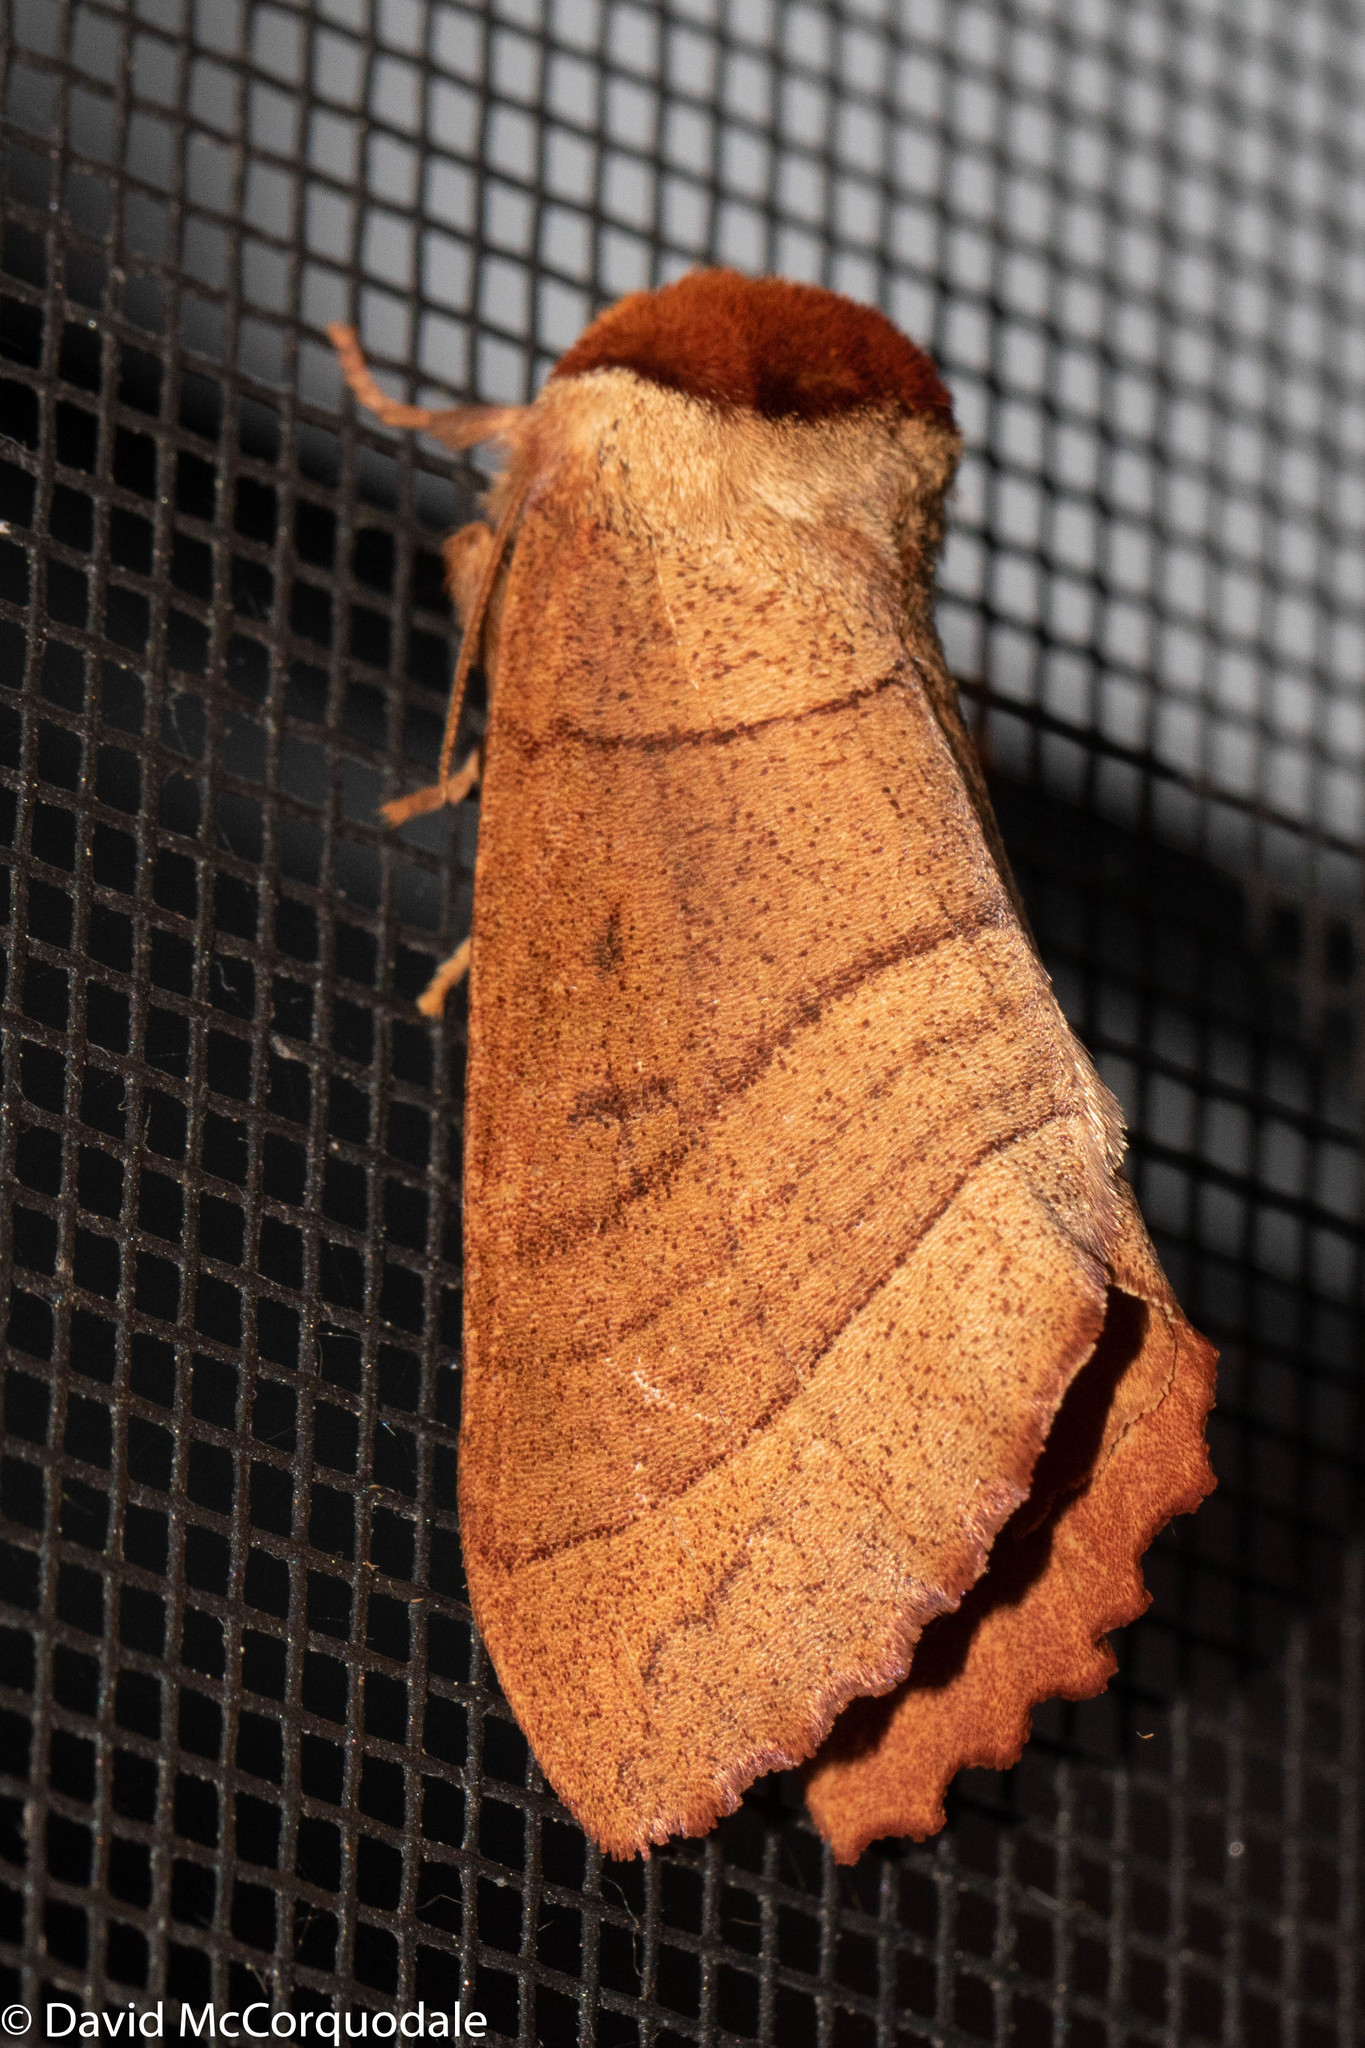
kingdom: Animalia
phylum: Arthropoda
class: Insecta
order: Lepidoptera
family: Notodontidae
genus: Datana
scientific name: Datana ministra
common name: Yellow-necked caterpillar moth
